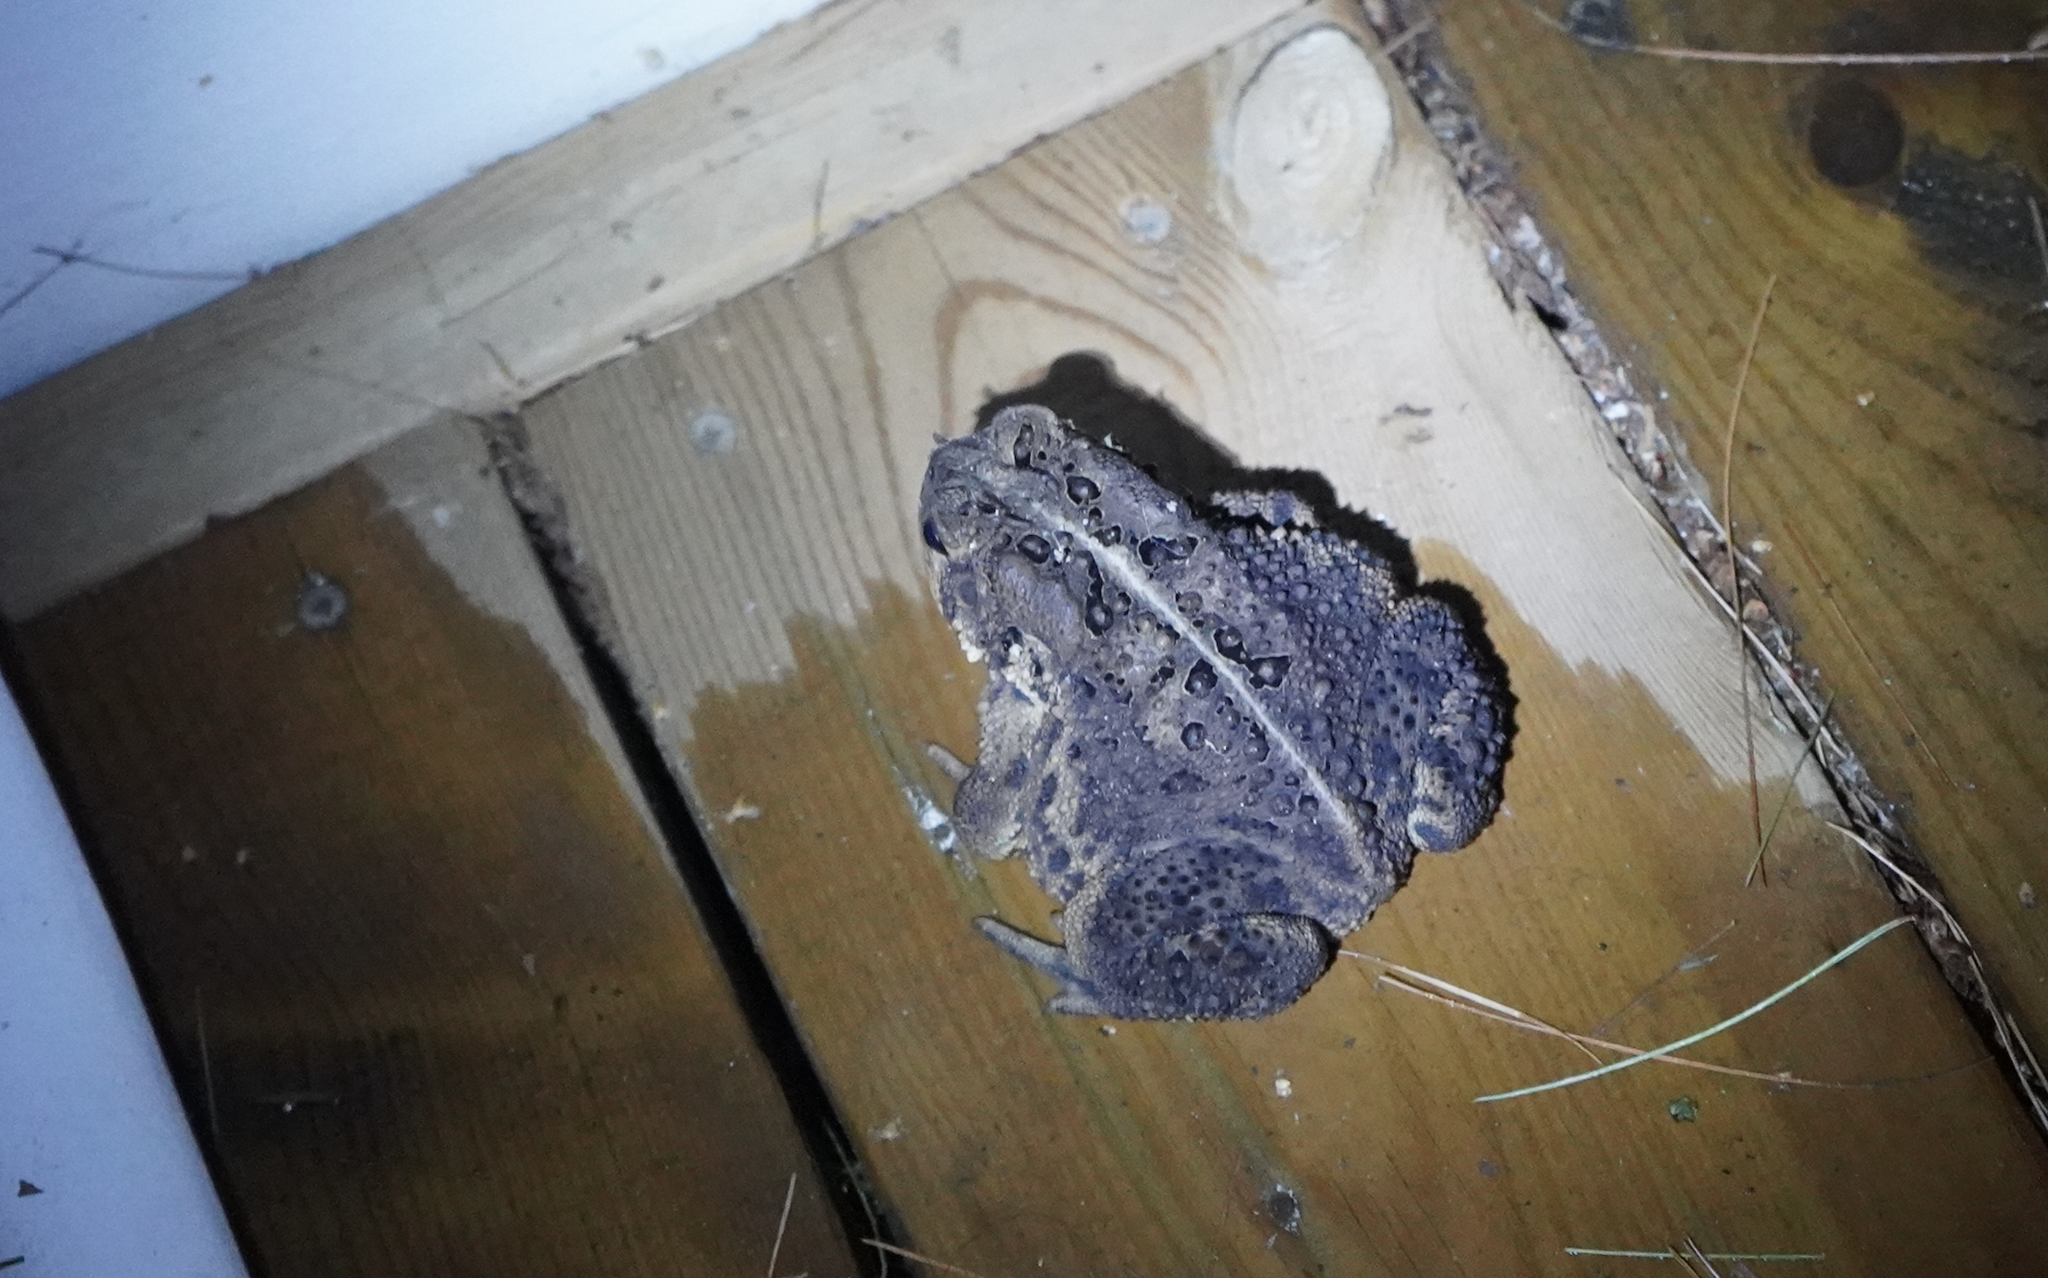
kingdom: Animalia
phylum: Chordata
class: Amphibia
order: Anura
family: Bufonidae
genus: Anaxyrus
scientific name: Anaxyrus americanus
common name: American toad
